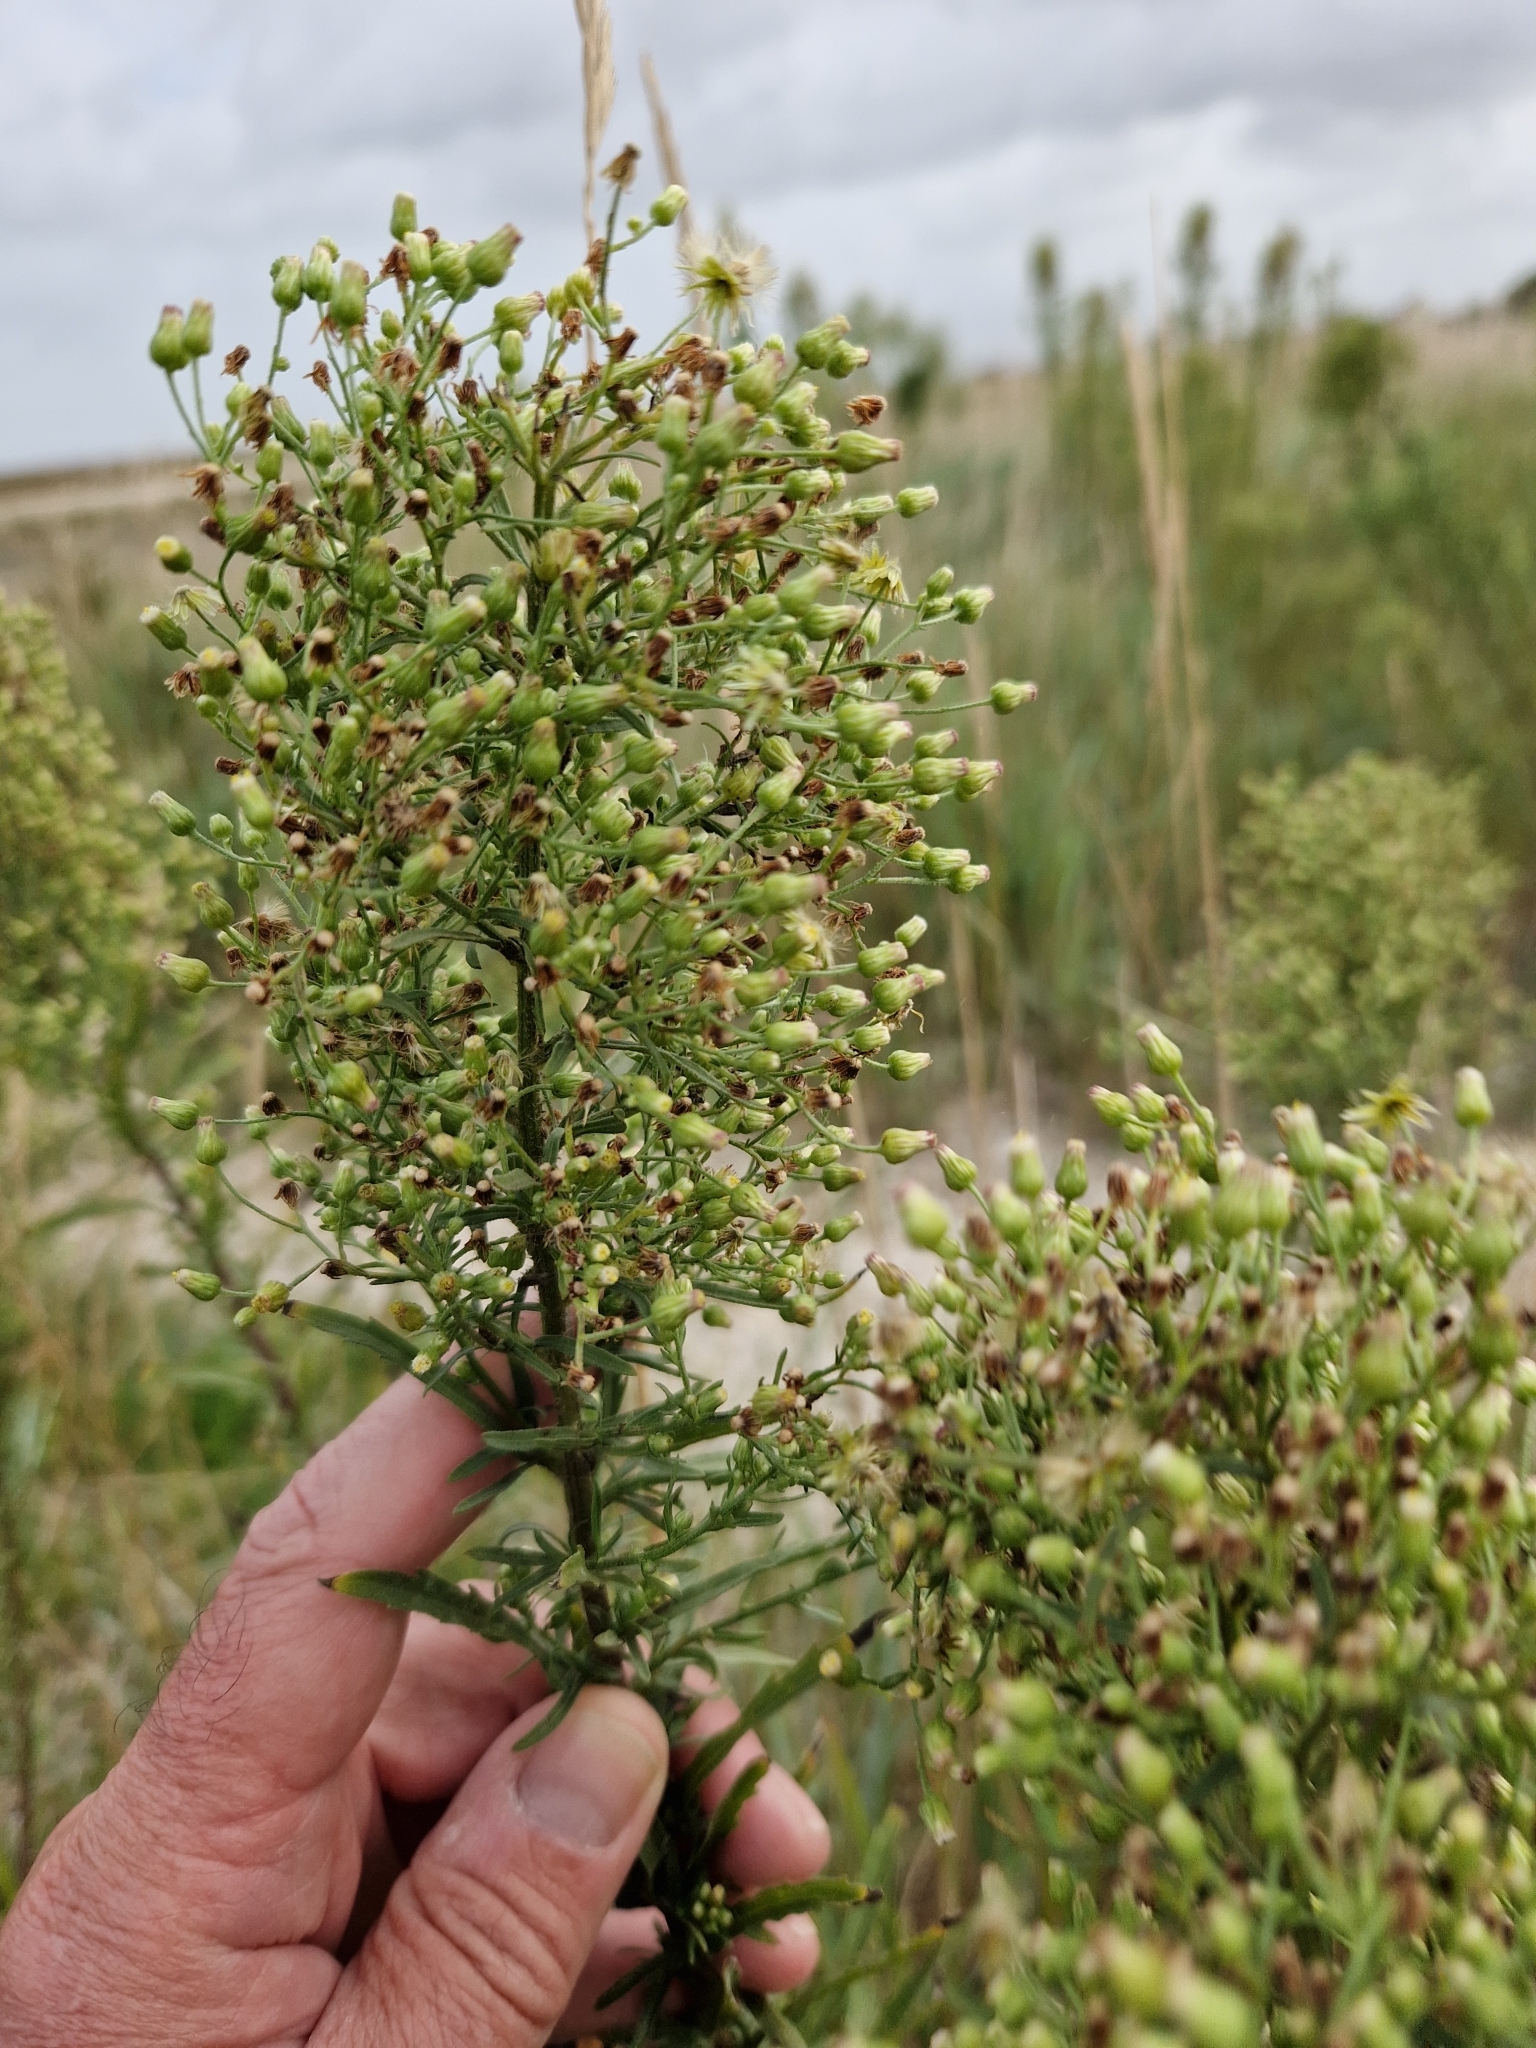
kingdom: Plantae
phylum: Tracheophyta
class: Magnoliopsida
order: Asterales
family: Asteraceae
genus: Erigeron
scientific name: Erigeron floribundus
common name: Bilbao fleabane
